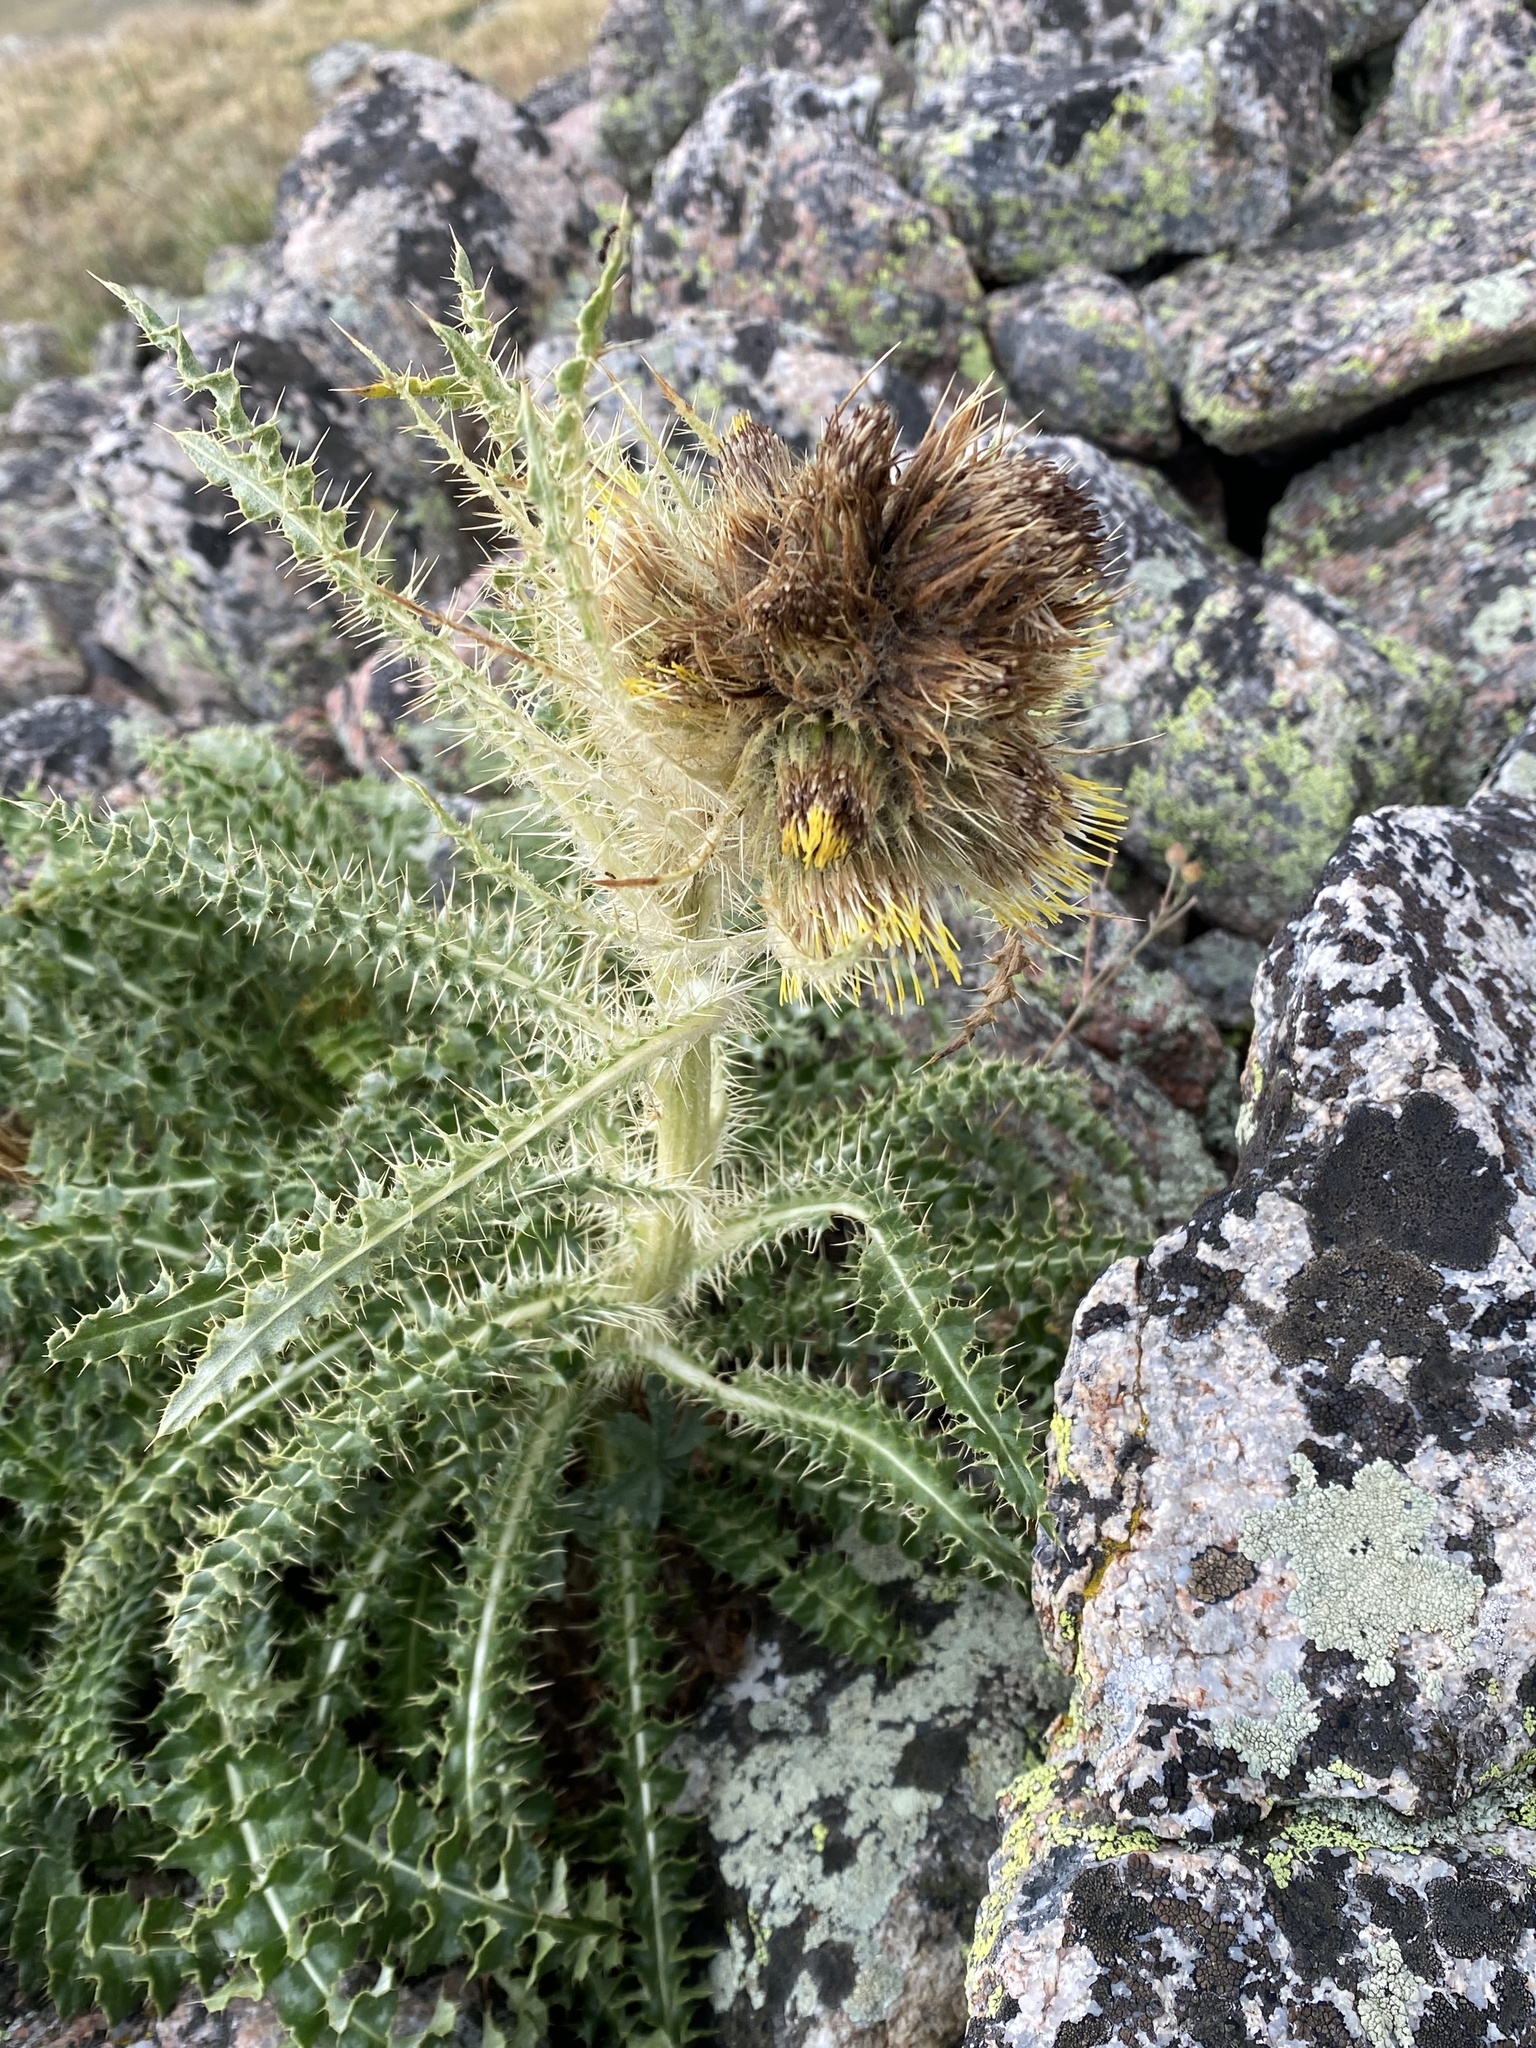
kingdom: Plantae
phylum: Tracheophyta
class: Magnoliopsida
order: Asterales
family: Asteraceae
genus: Cirsium
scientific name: Cirsium funkiae
